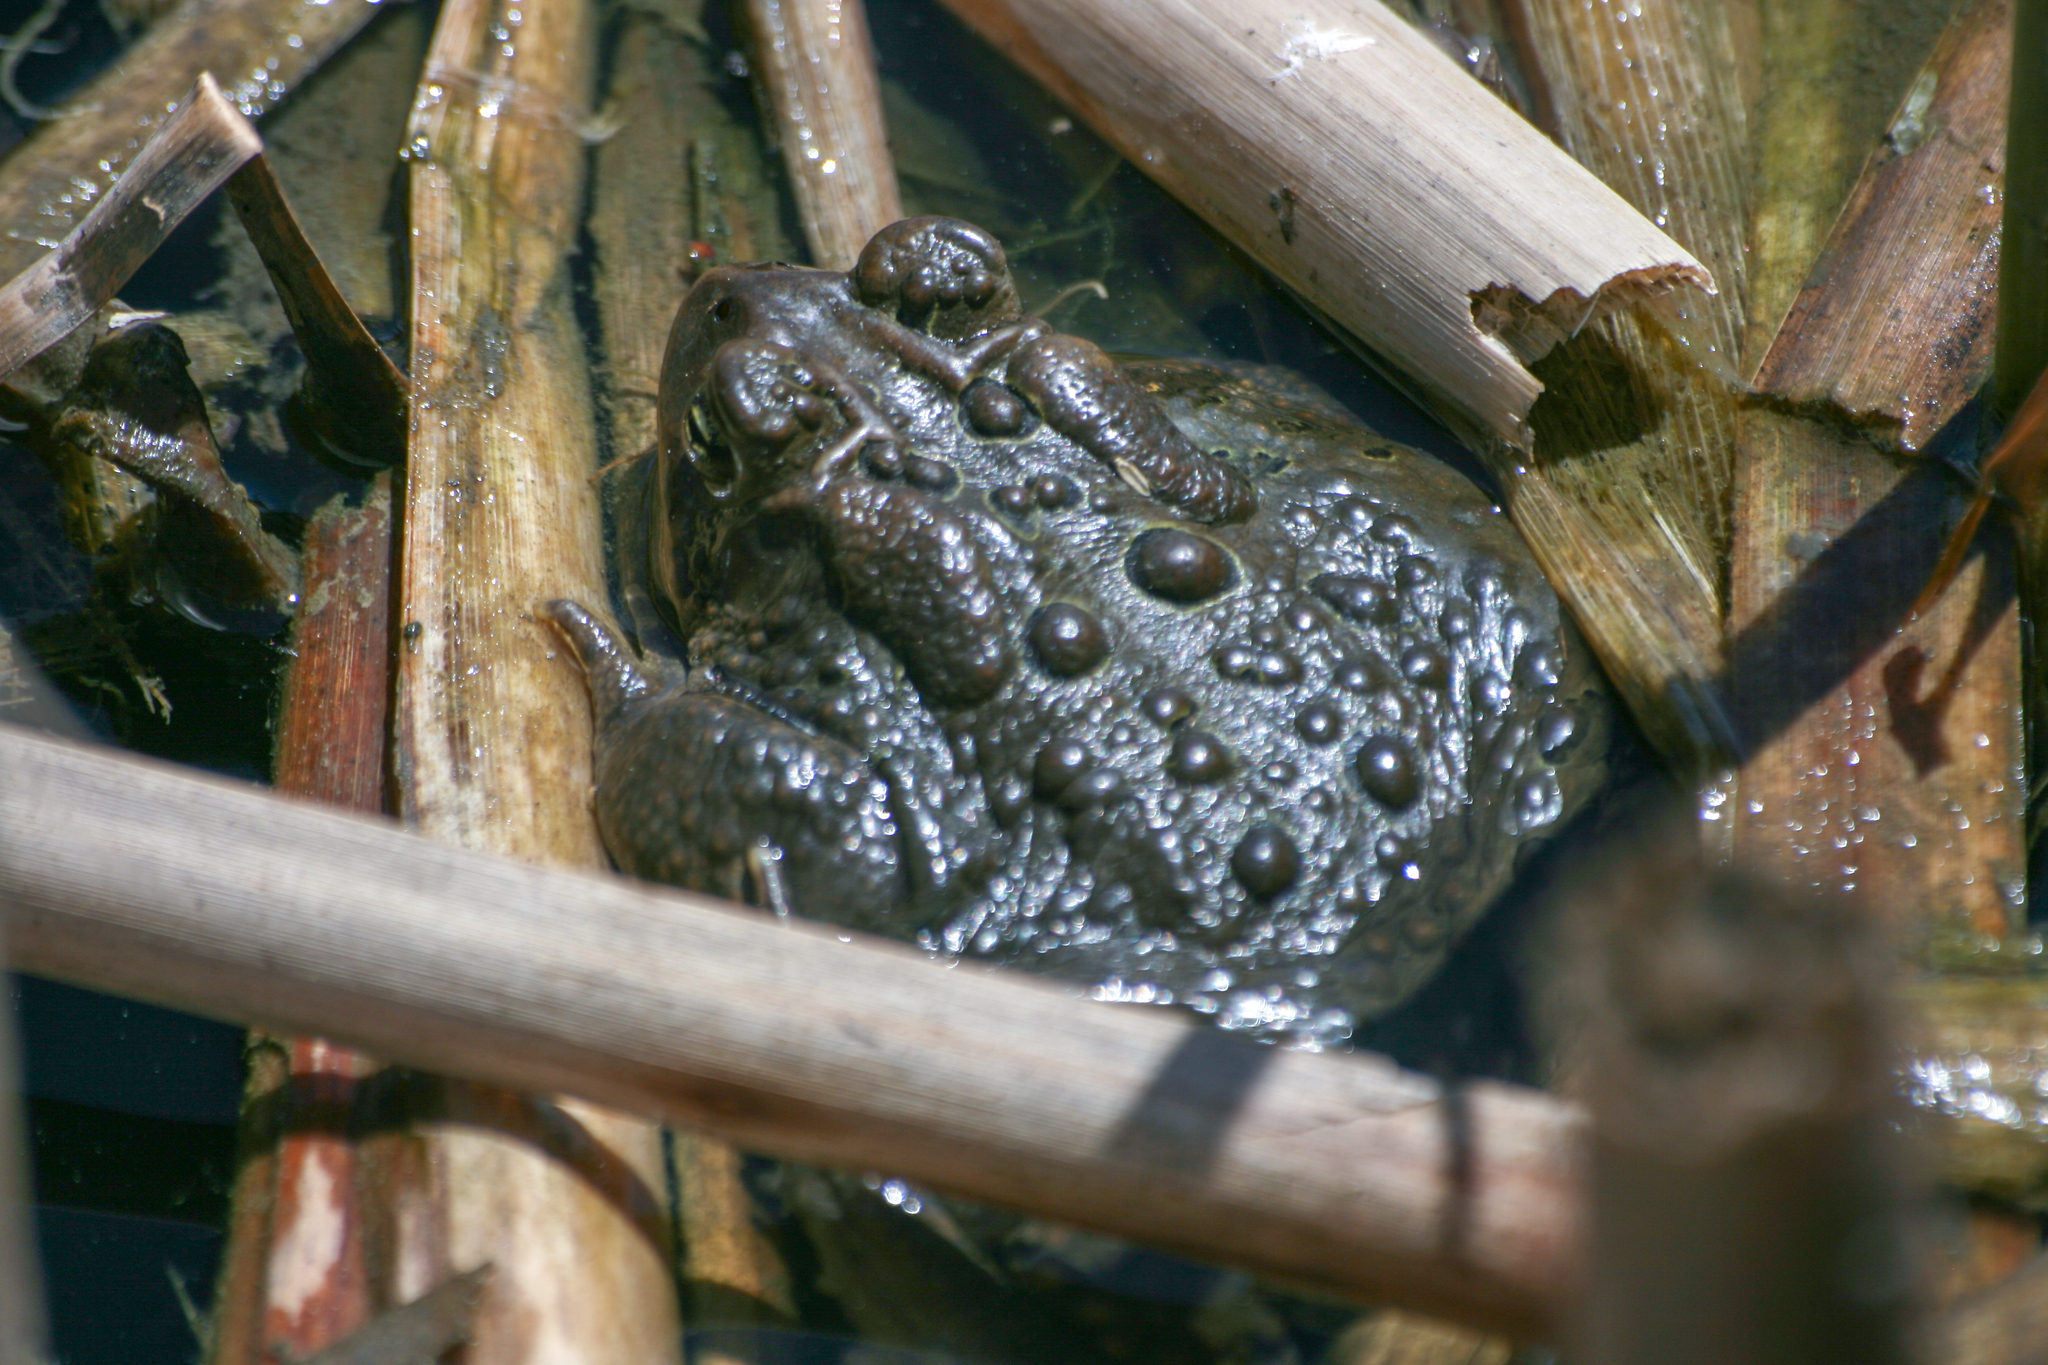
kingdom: Animalia
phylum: Chordata
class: Amphibia
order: Anura
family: Bufonidae
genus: Anaxyrus
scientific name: Anaxyrus americanus
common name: American toad
